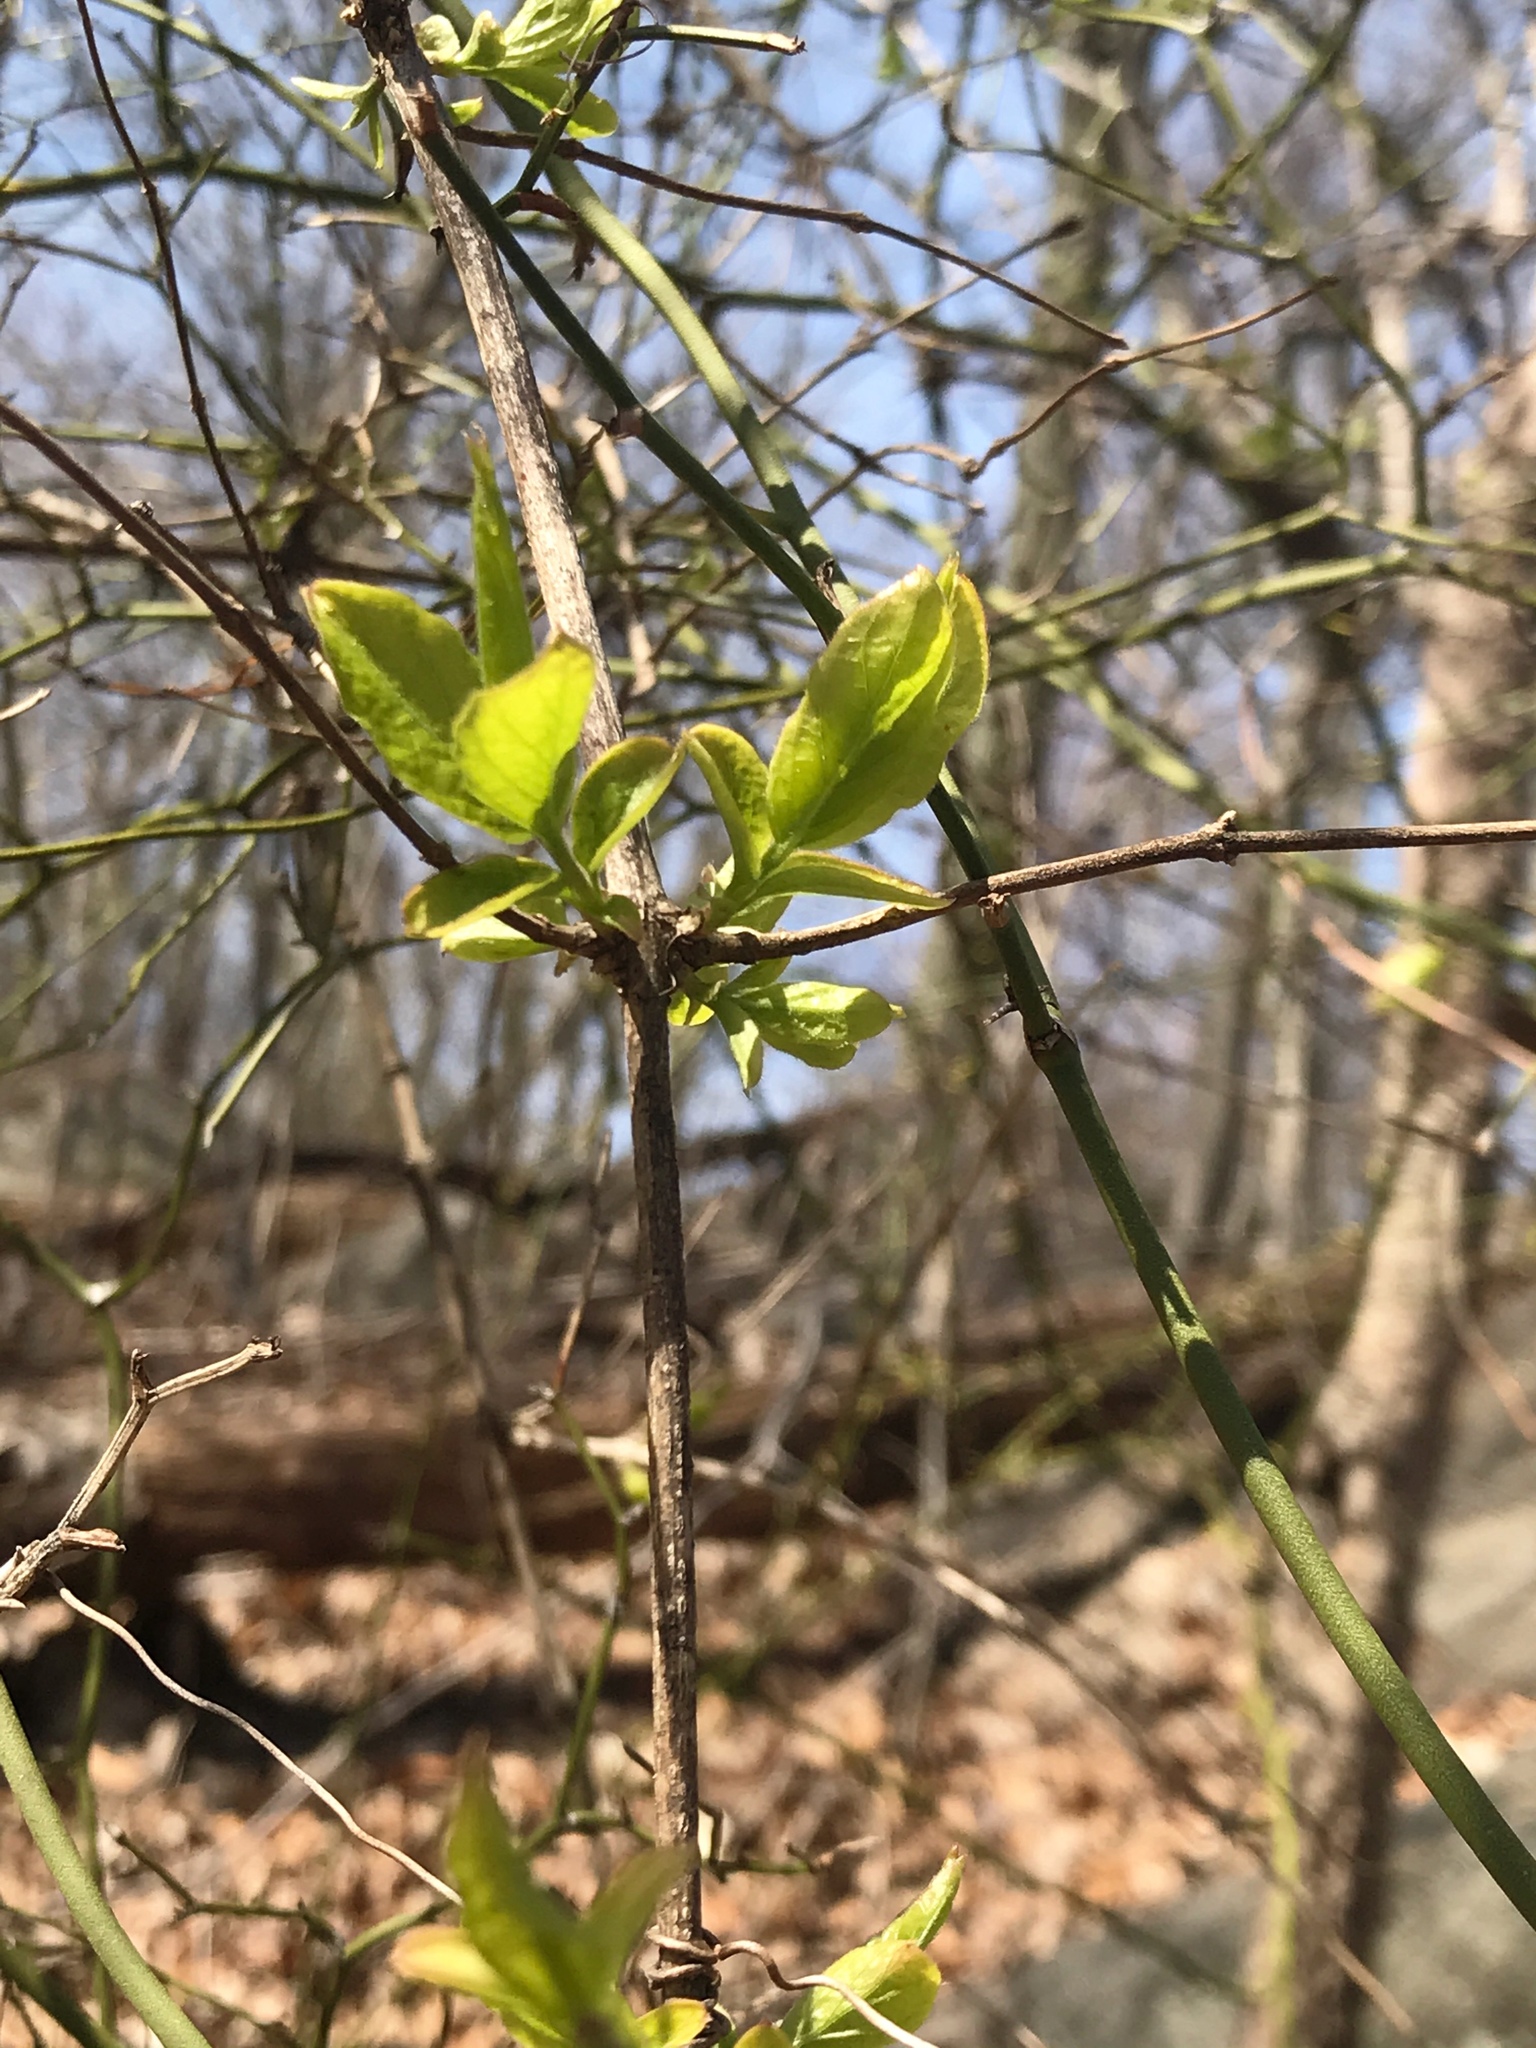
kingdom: Plantae
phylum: Tracheophyta
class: Magnoliopsida
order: Dipsacales
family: Caprifoliaceae
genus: Lonicera
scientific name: Lonicera japonica
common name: Japanese honeysuckle
